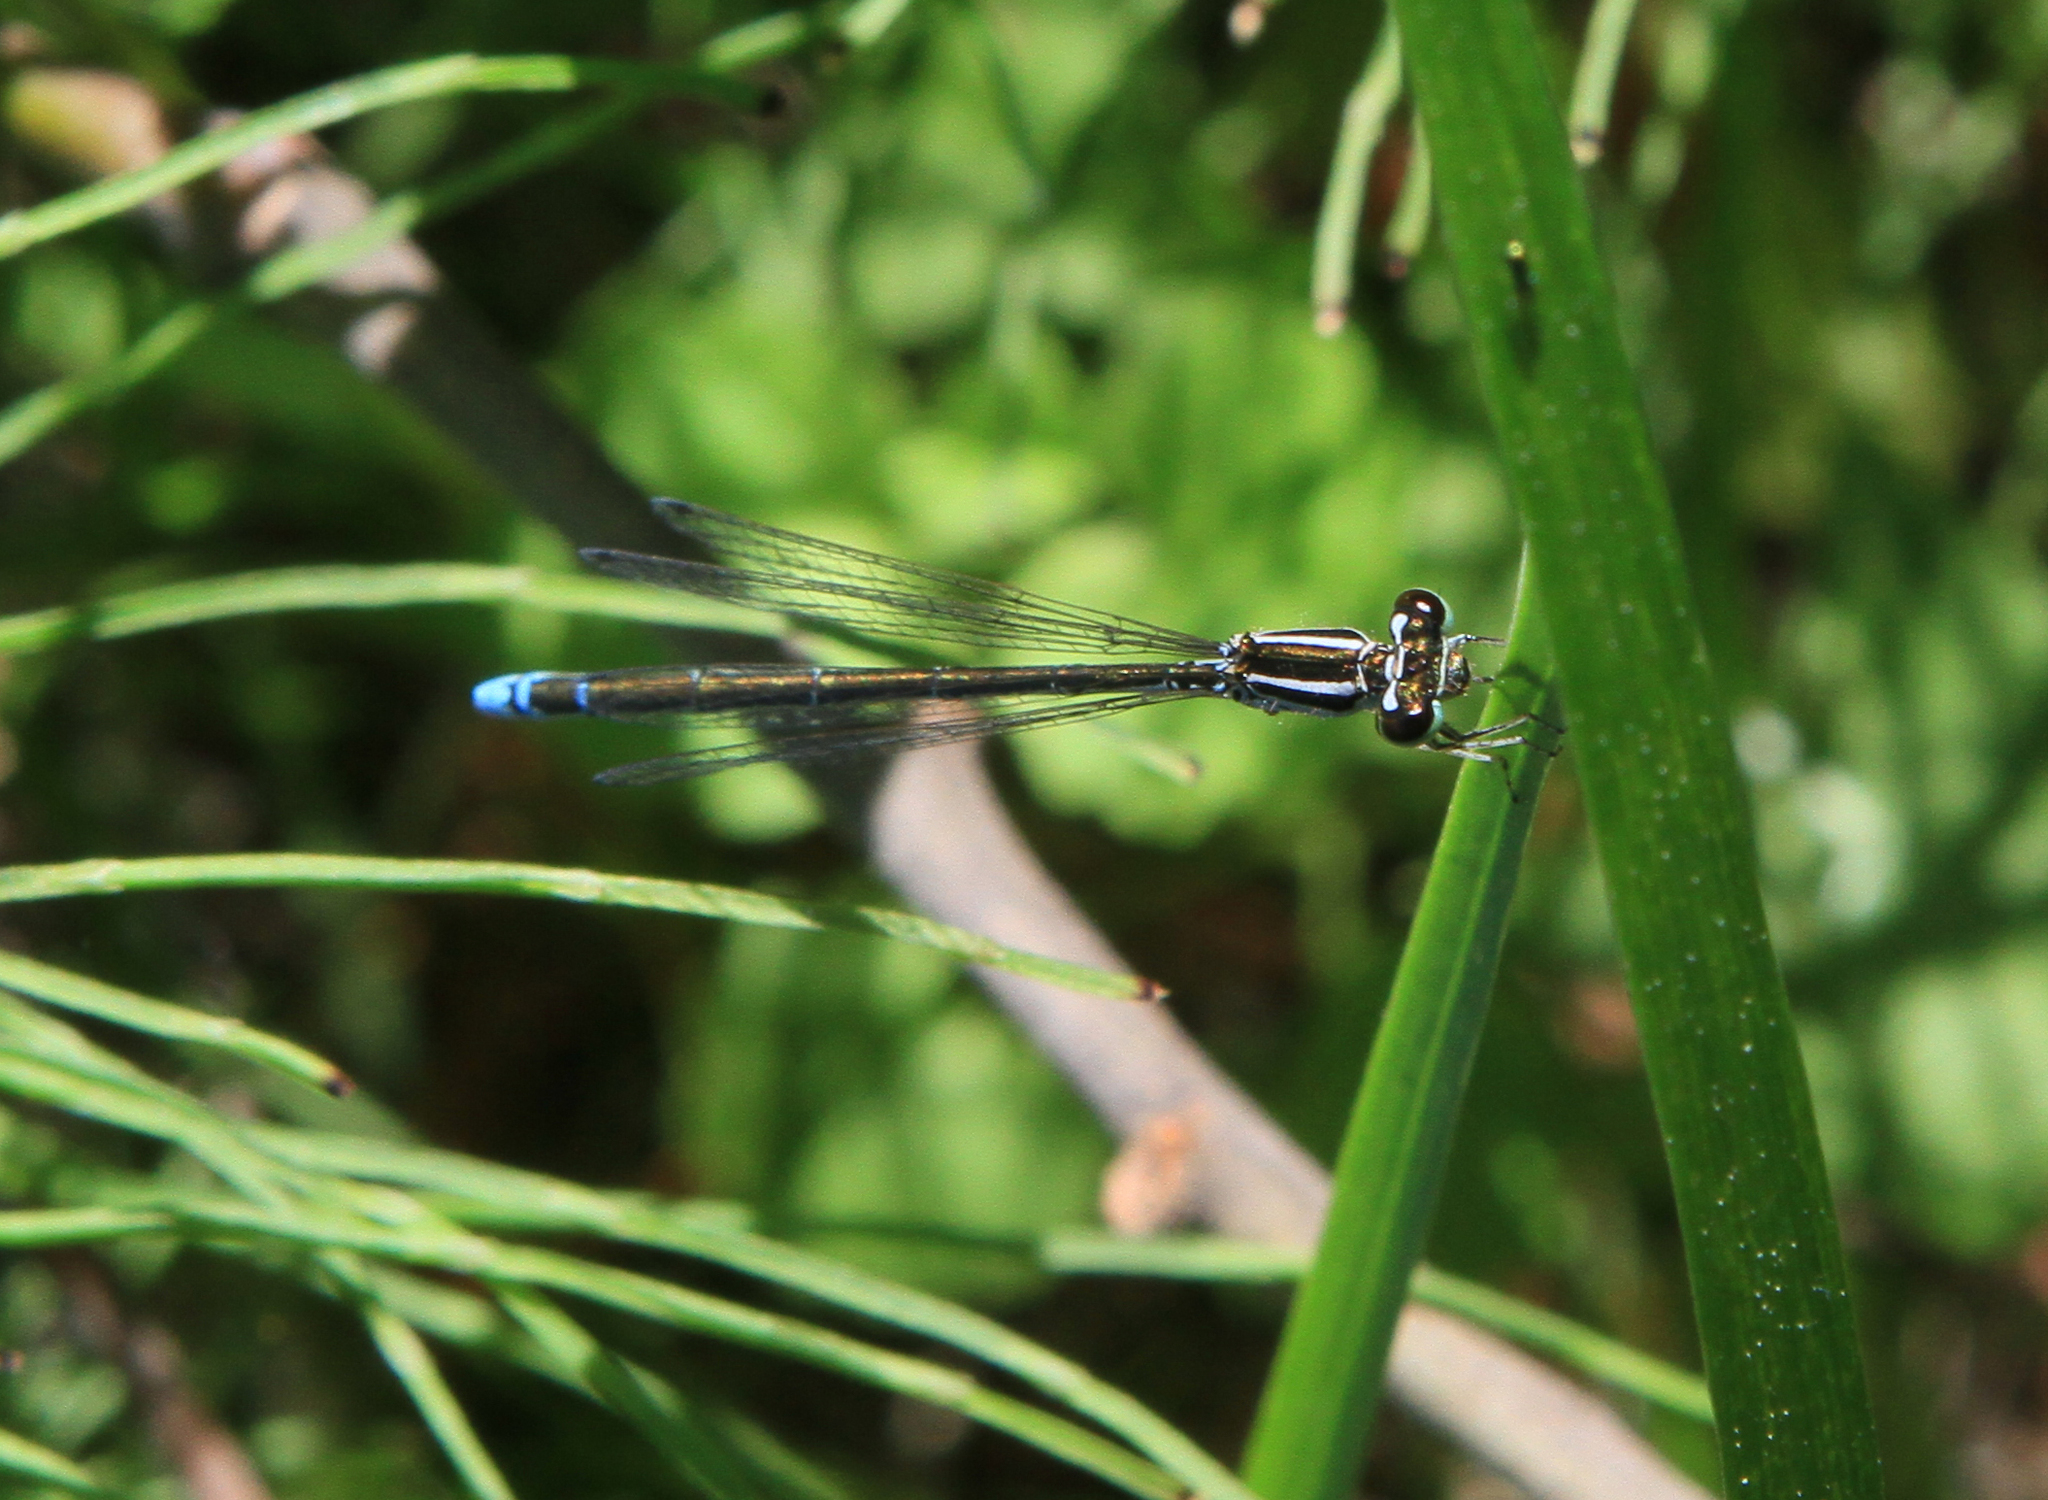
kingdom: Animalia
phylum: Arthropoda
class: Insecta
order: Odonata
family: Coenagrionidae
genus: Coenagrion
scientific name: Coenagrion ecornutum
